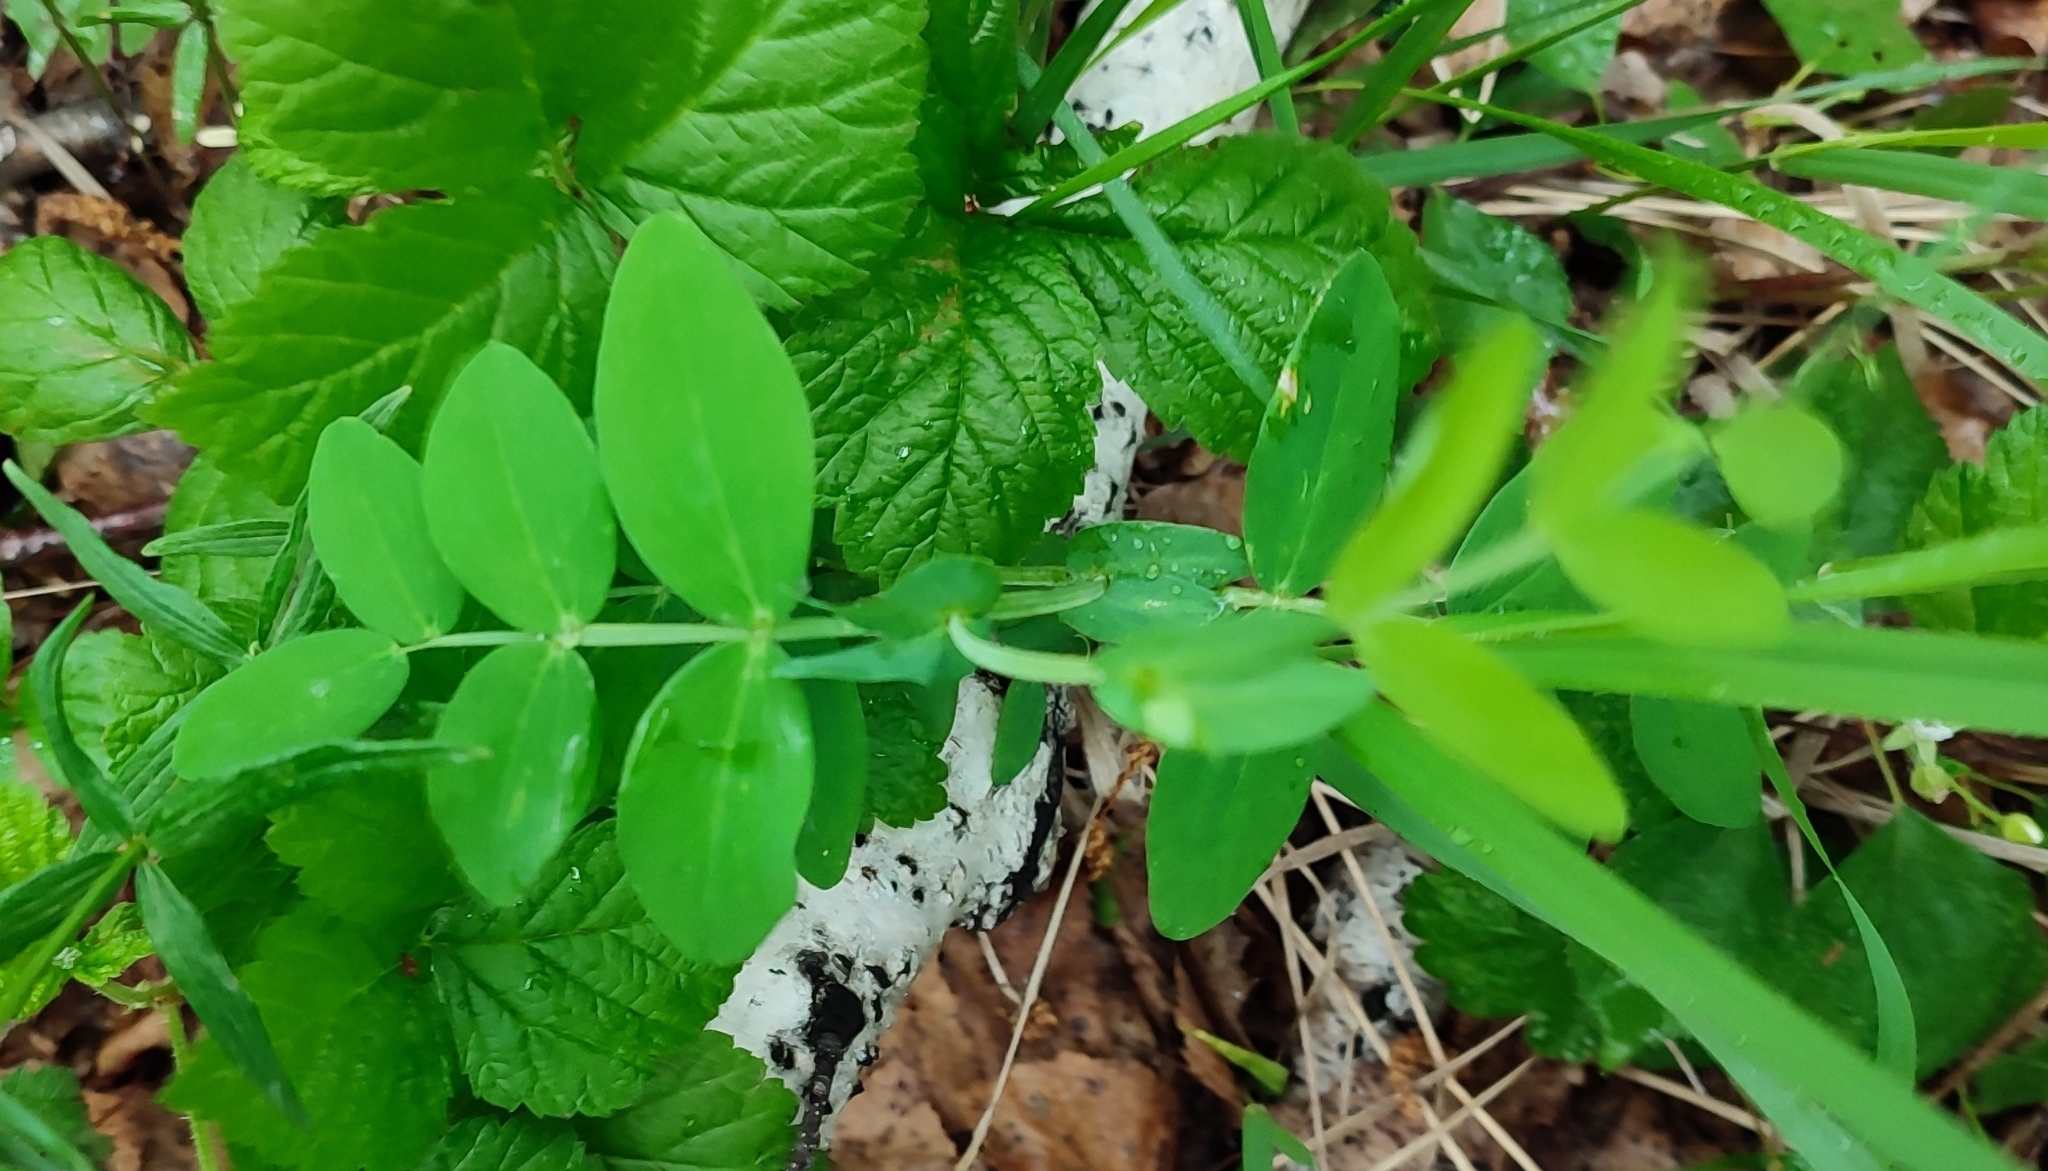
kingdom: Plantae
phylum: Tracheophyta
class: Magnoliopsida
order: Fabales
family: Fabaceae
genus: Lathyrus
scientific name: Lathyrus pisiformis
